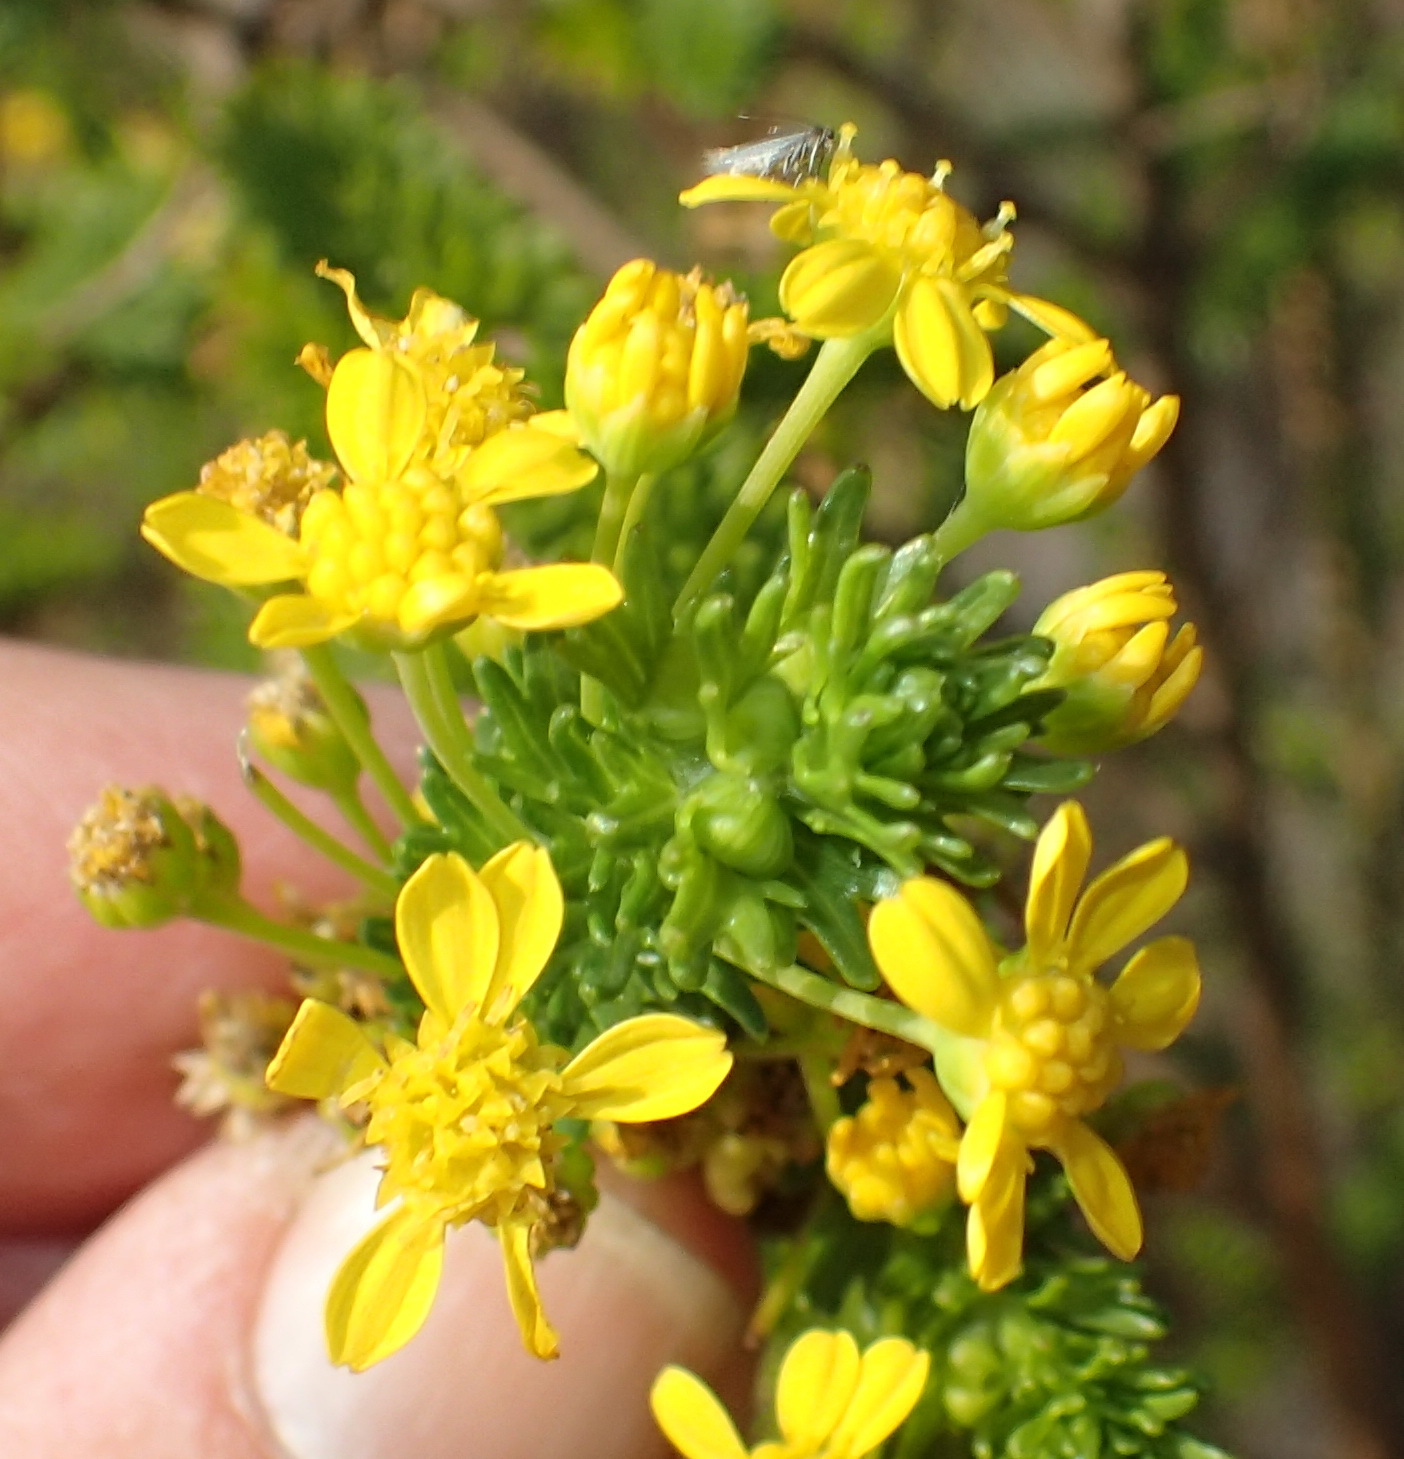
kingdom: Plantae
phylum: Tracheophyta
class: Magnoliopsida
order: Asterales
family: Asteraceae
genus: Euryops
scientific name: Euryops virgineus
